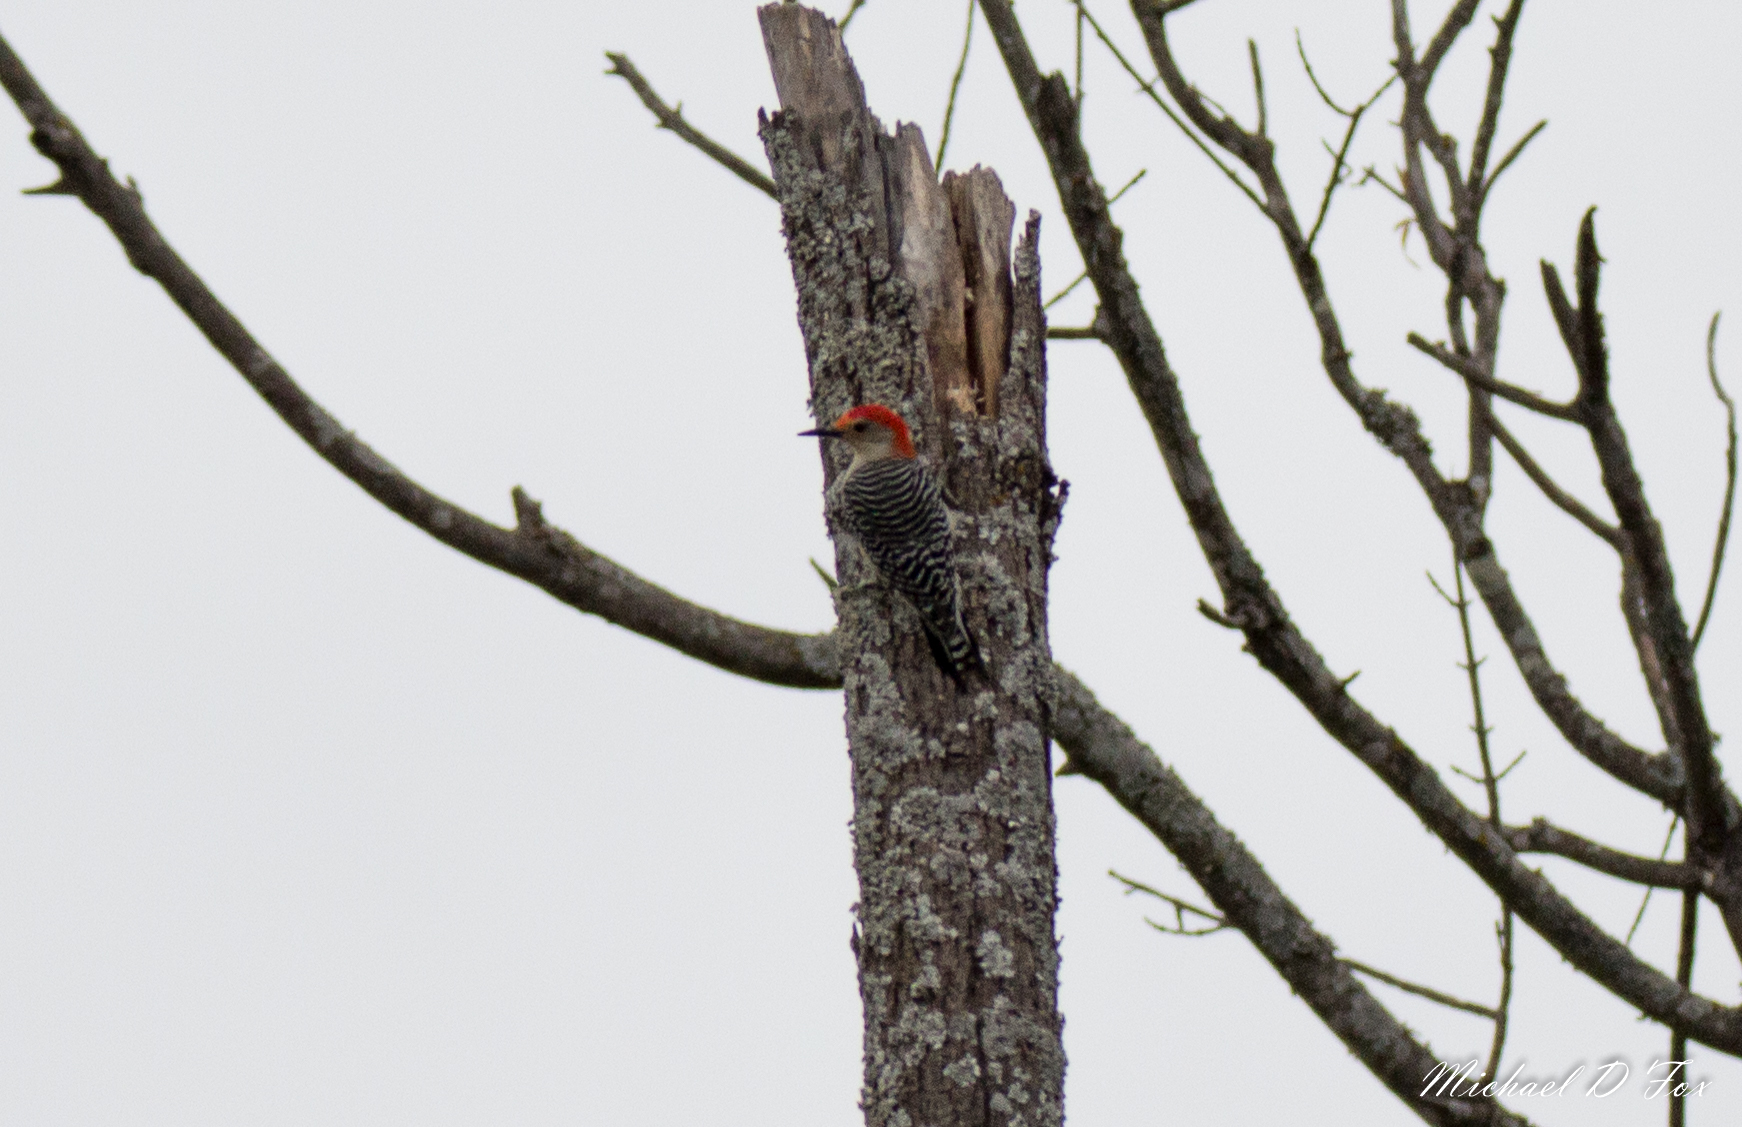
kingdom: Animalia
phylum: Chordata
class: Aves
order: Piciformes
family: Picidae
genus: Melanerpes
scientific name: Melanerpes carolinus
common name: Red-bellied woodpecker
